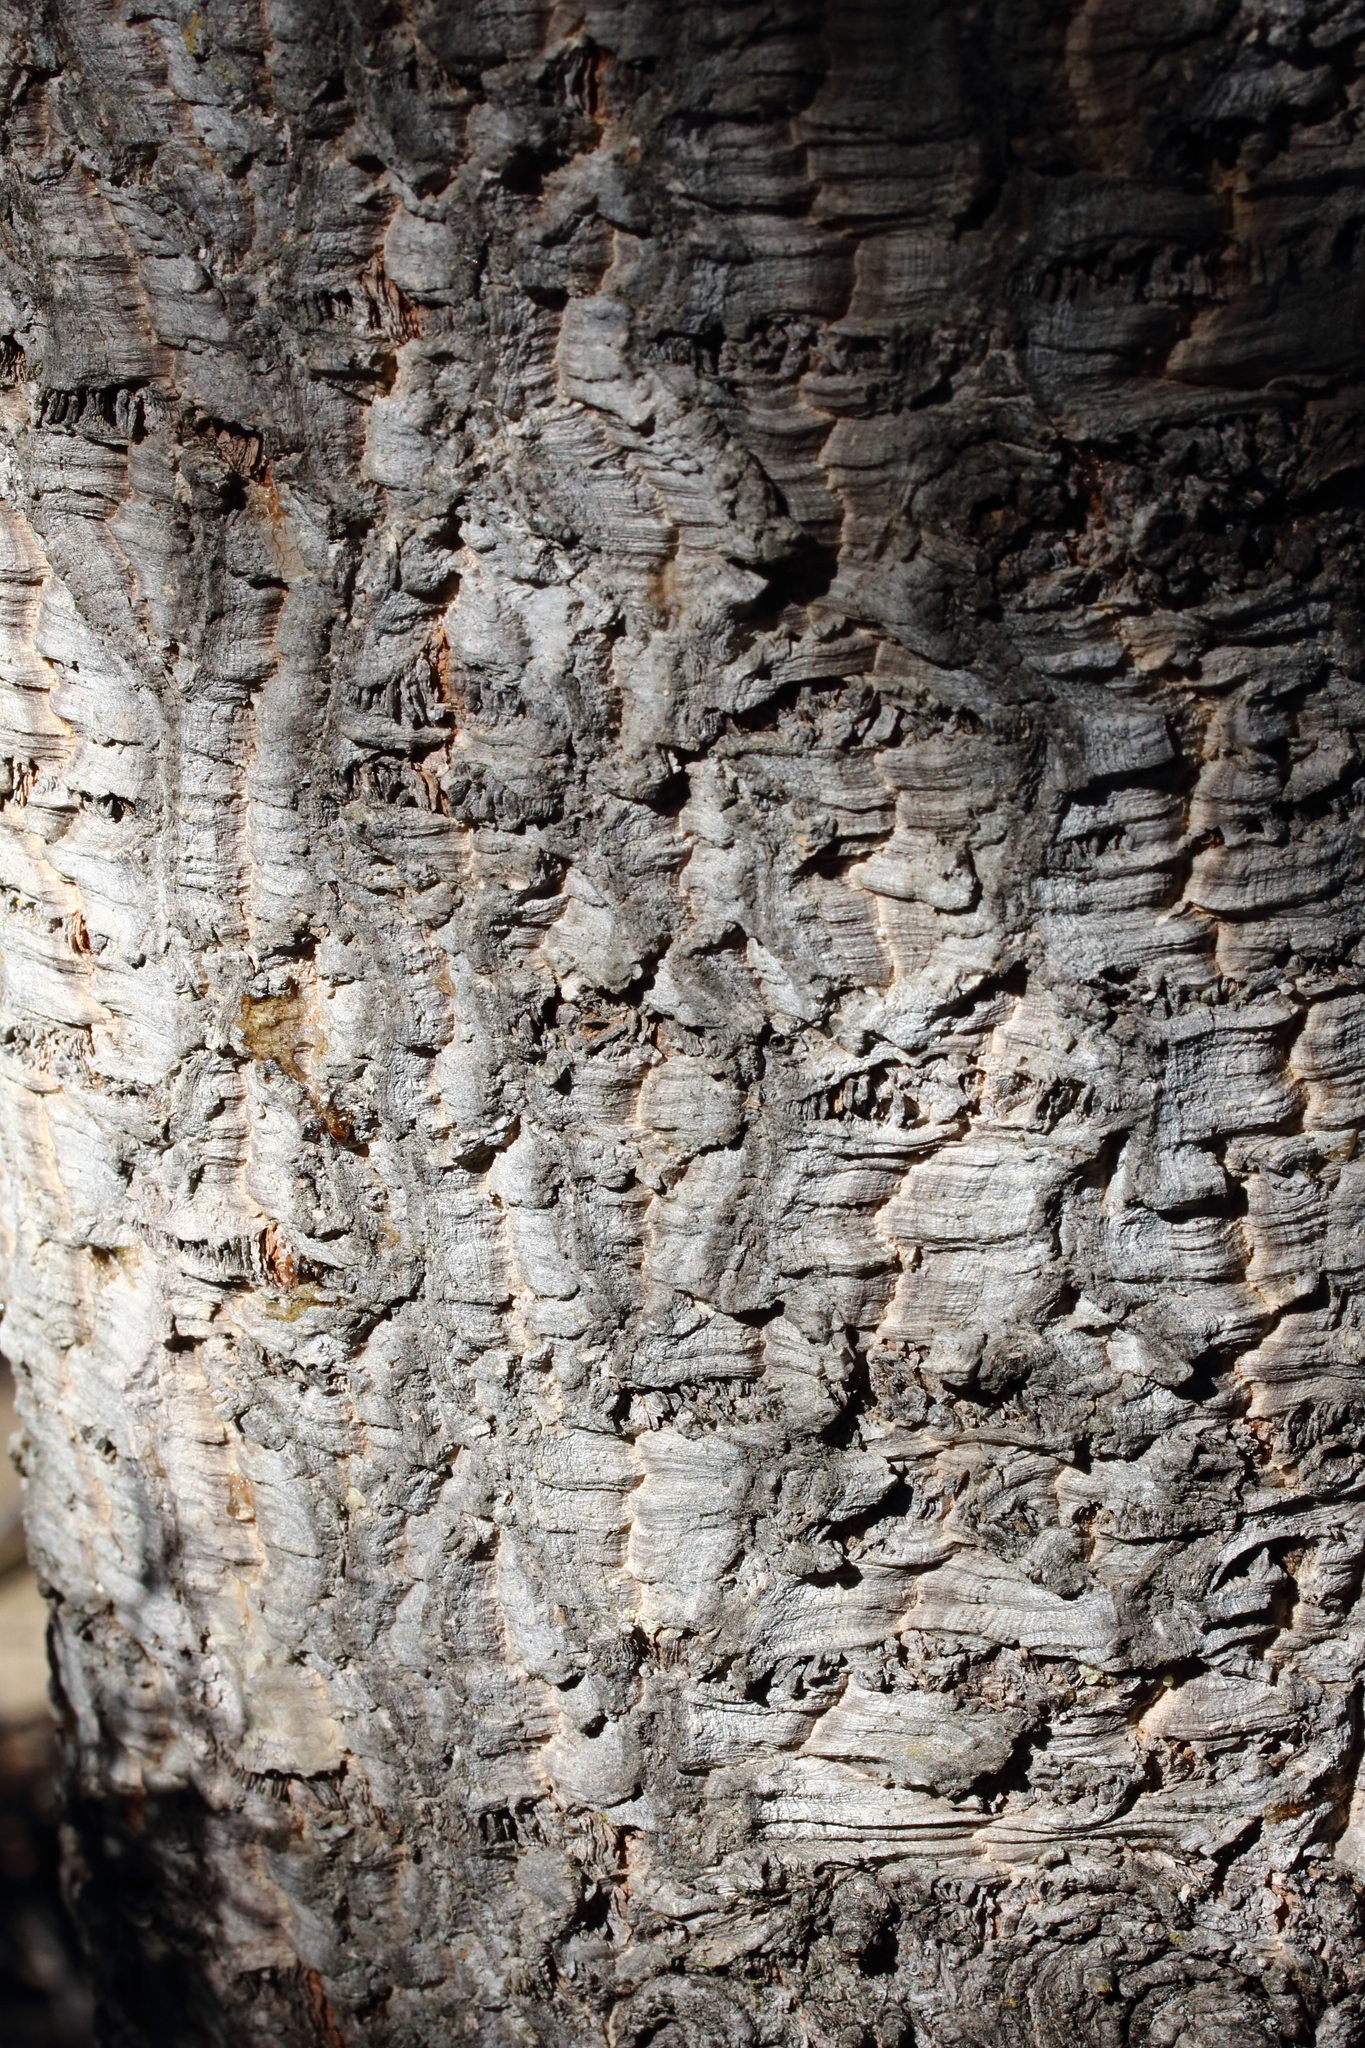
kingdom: Plantae
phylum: Tracheophyta
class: Pinopsida
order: Pinales
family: Pinaceae
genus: Abies
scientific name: Abies lasiocarpa
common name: Subalpine fir
